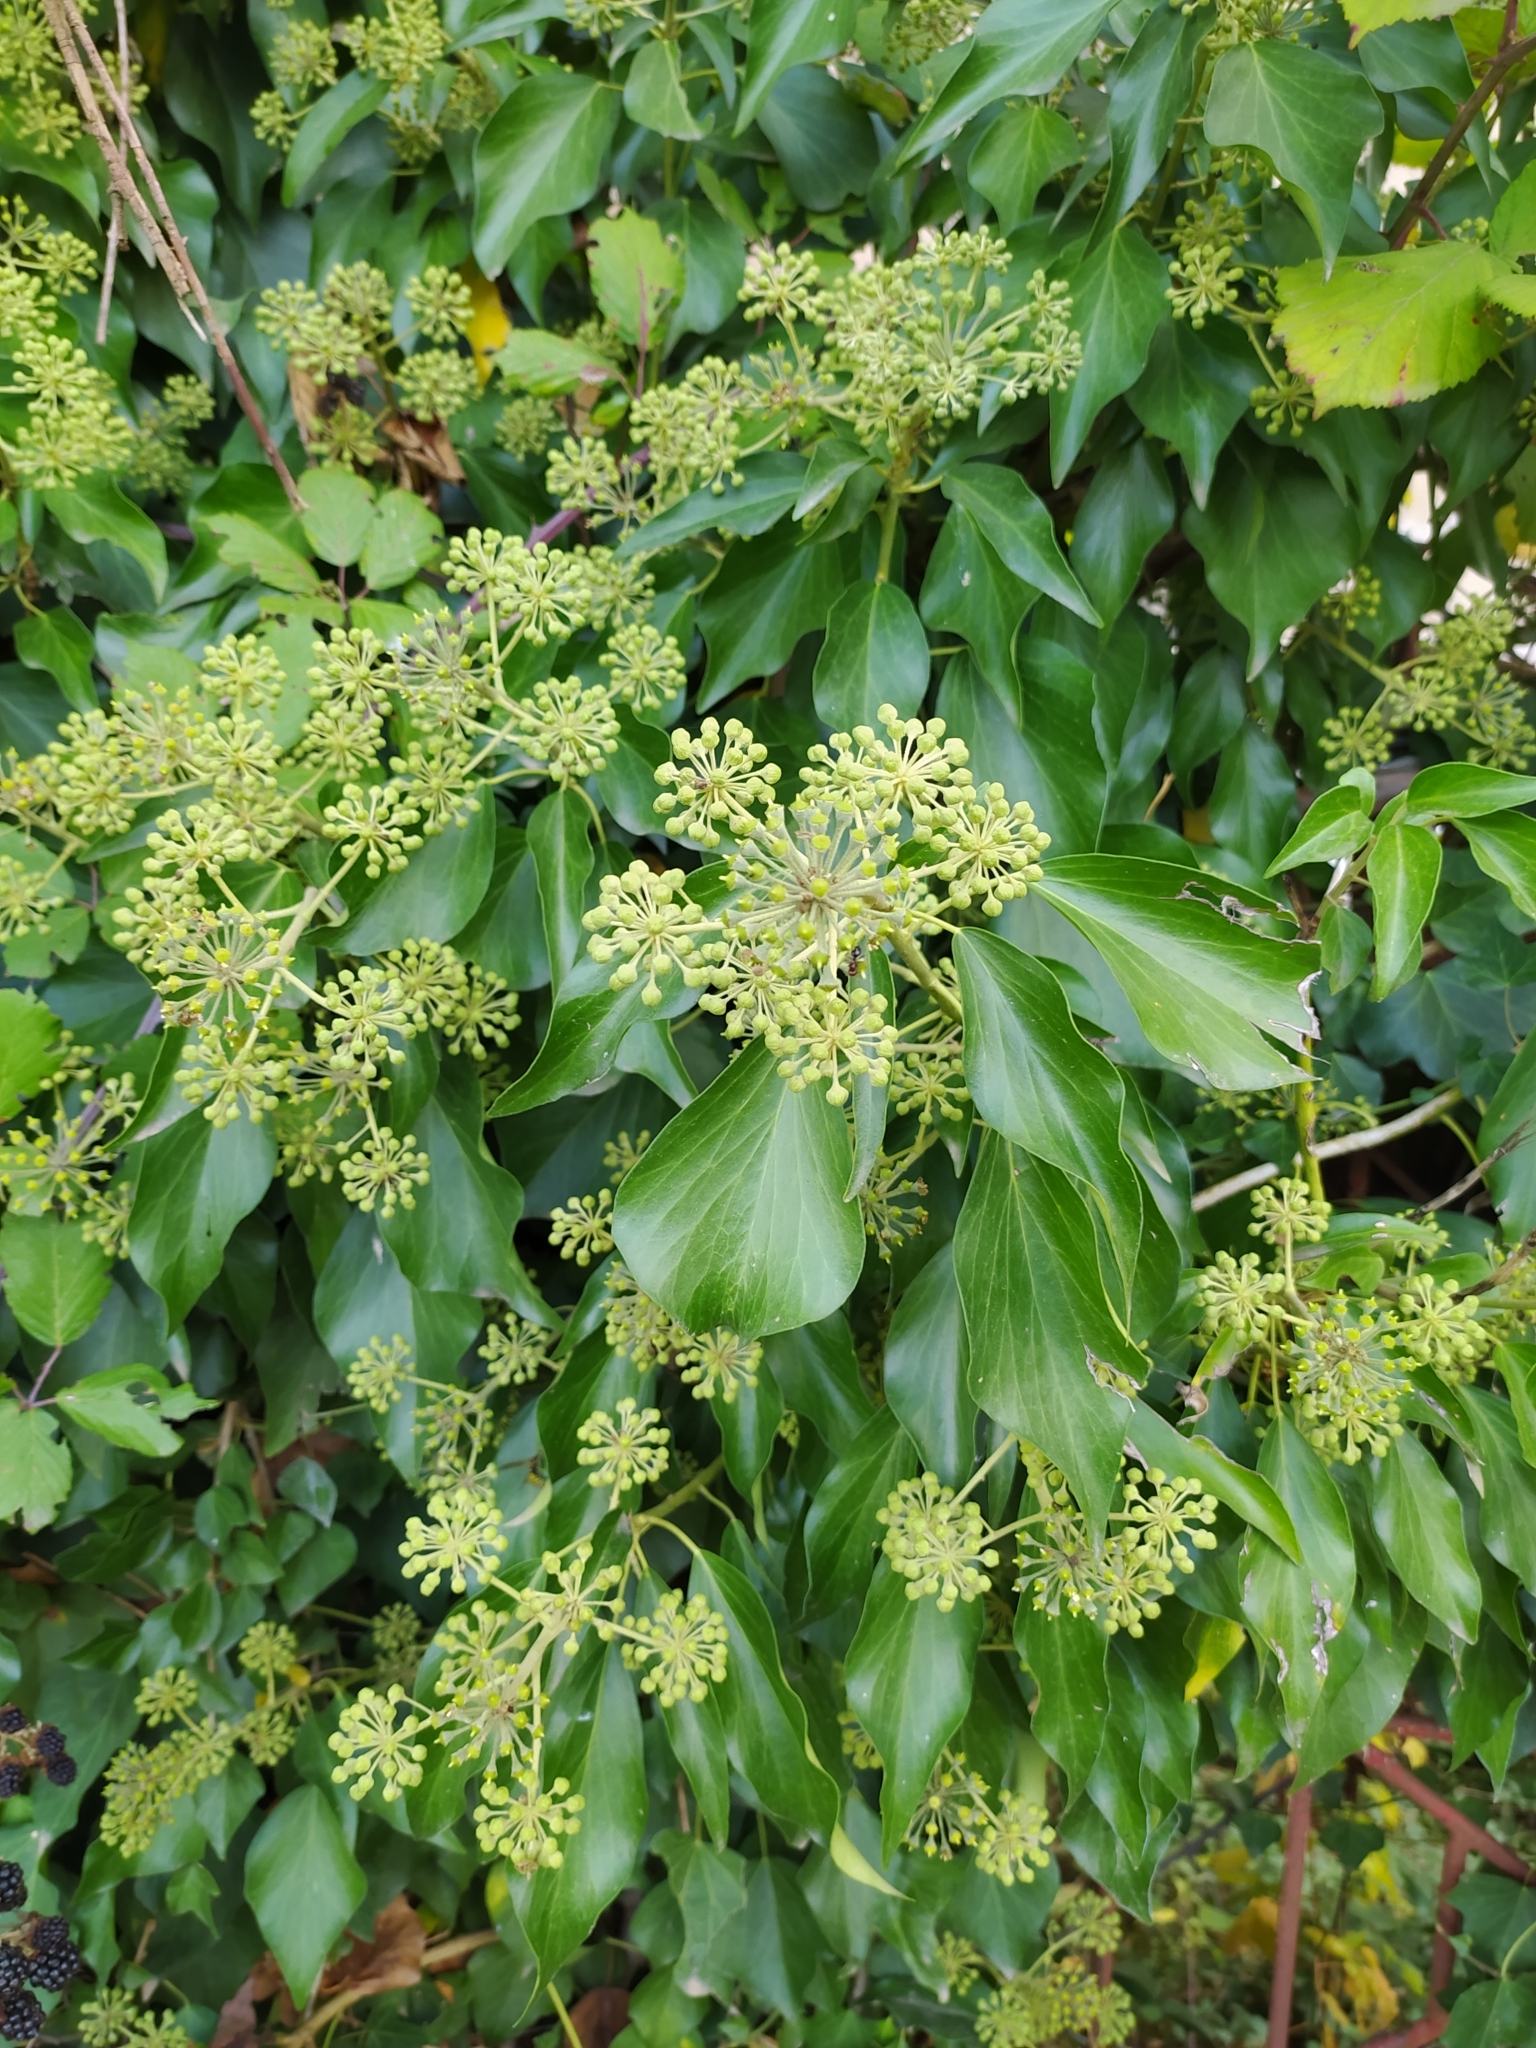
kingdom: Plantae
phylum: Tracheophyta
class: Magnoliopsida
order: Apiales
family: Araliaceae
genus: Hedera
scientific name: Hedera helix
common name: Ivy
